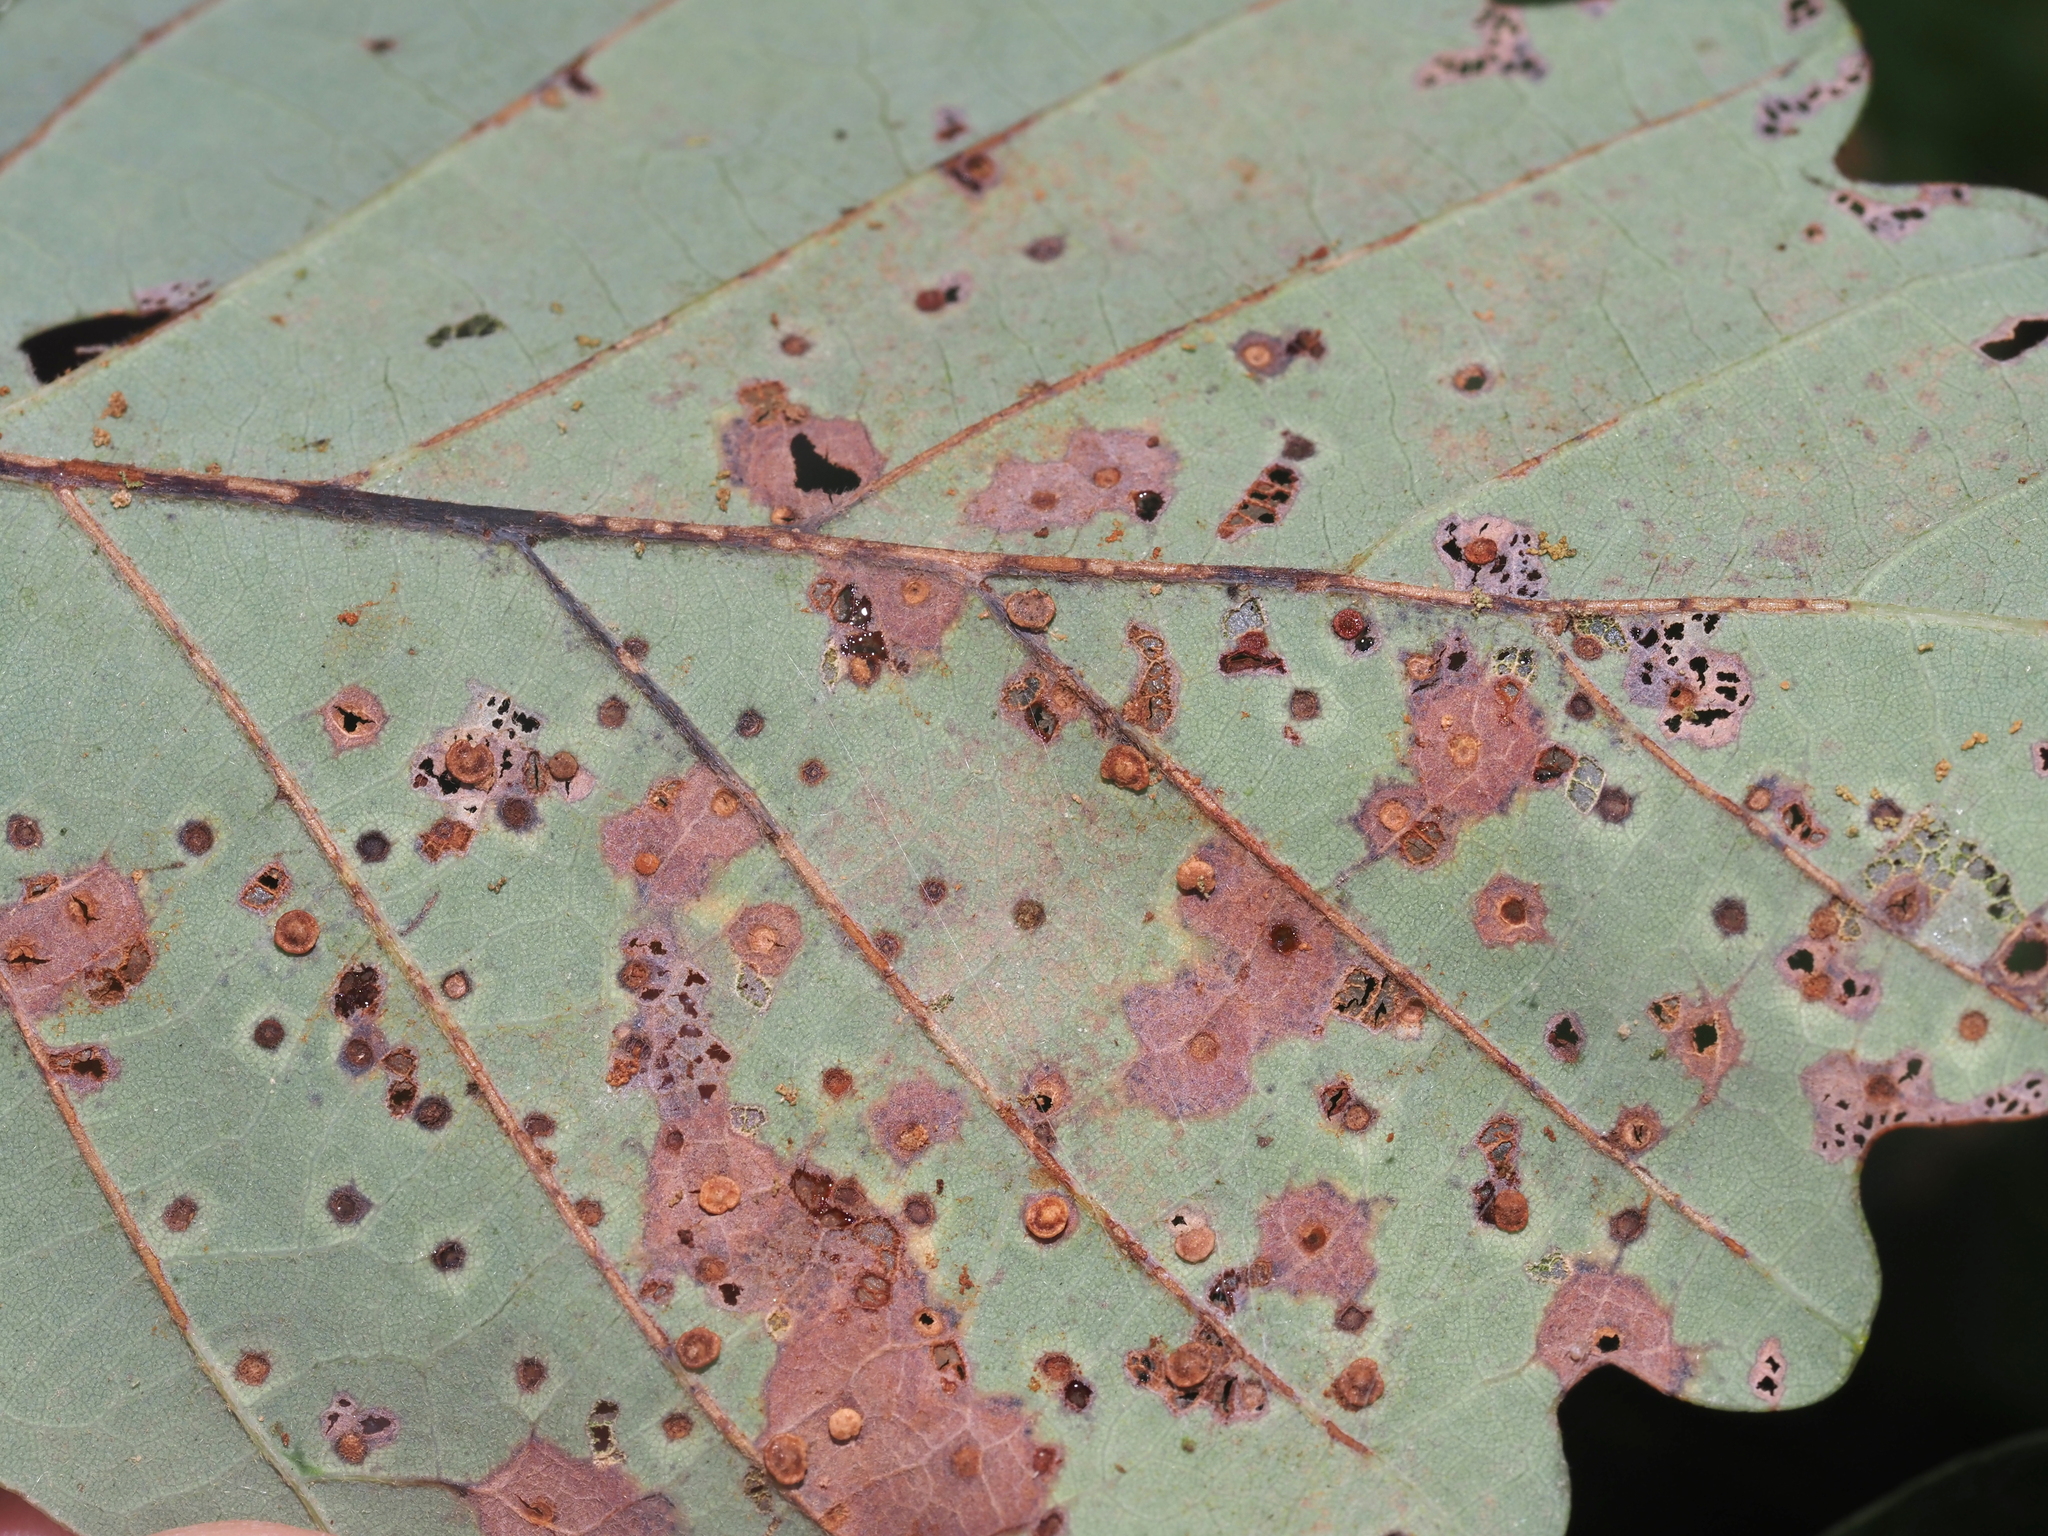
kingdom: Animalia
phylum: Arthropoda
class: Insecta
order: Hymenoptera
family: Cynipidae
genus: Neuroterus
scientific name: Neuroterus
